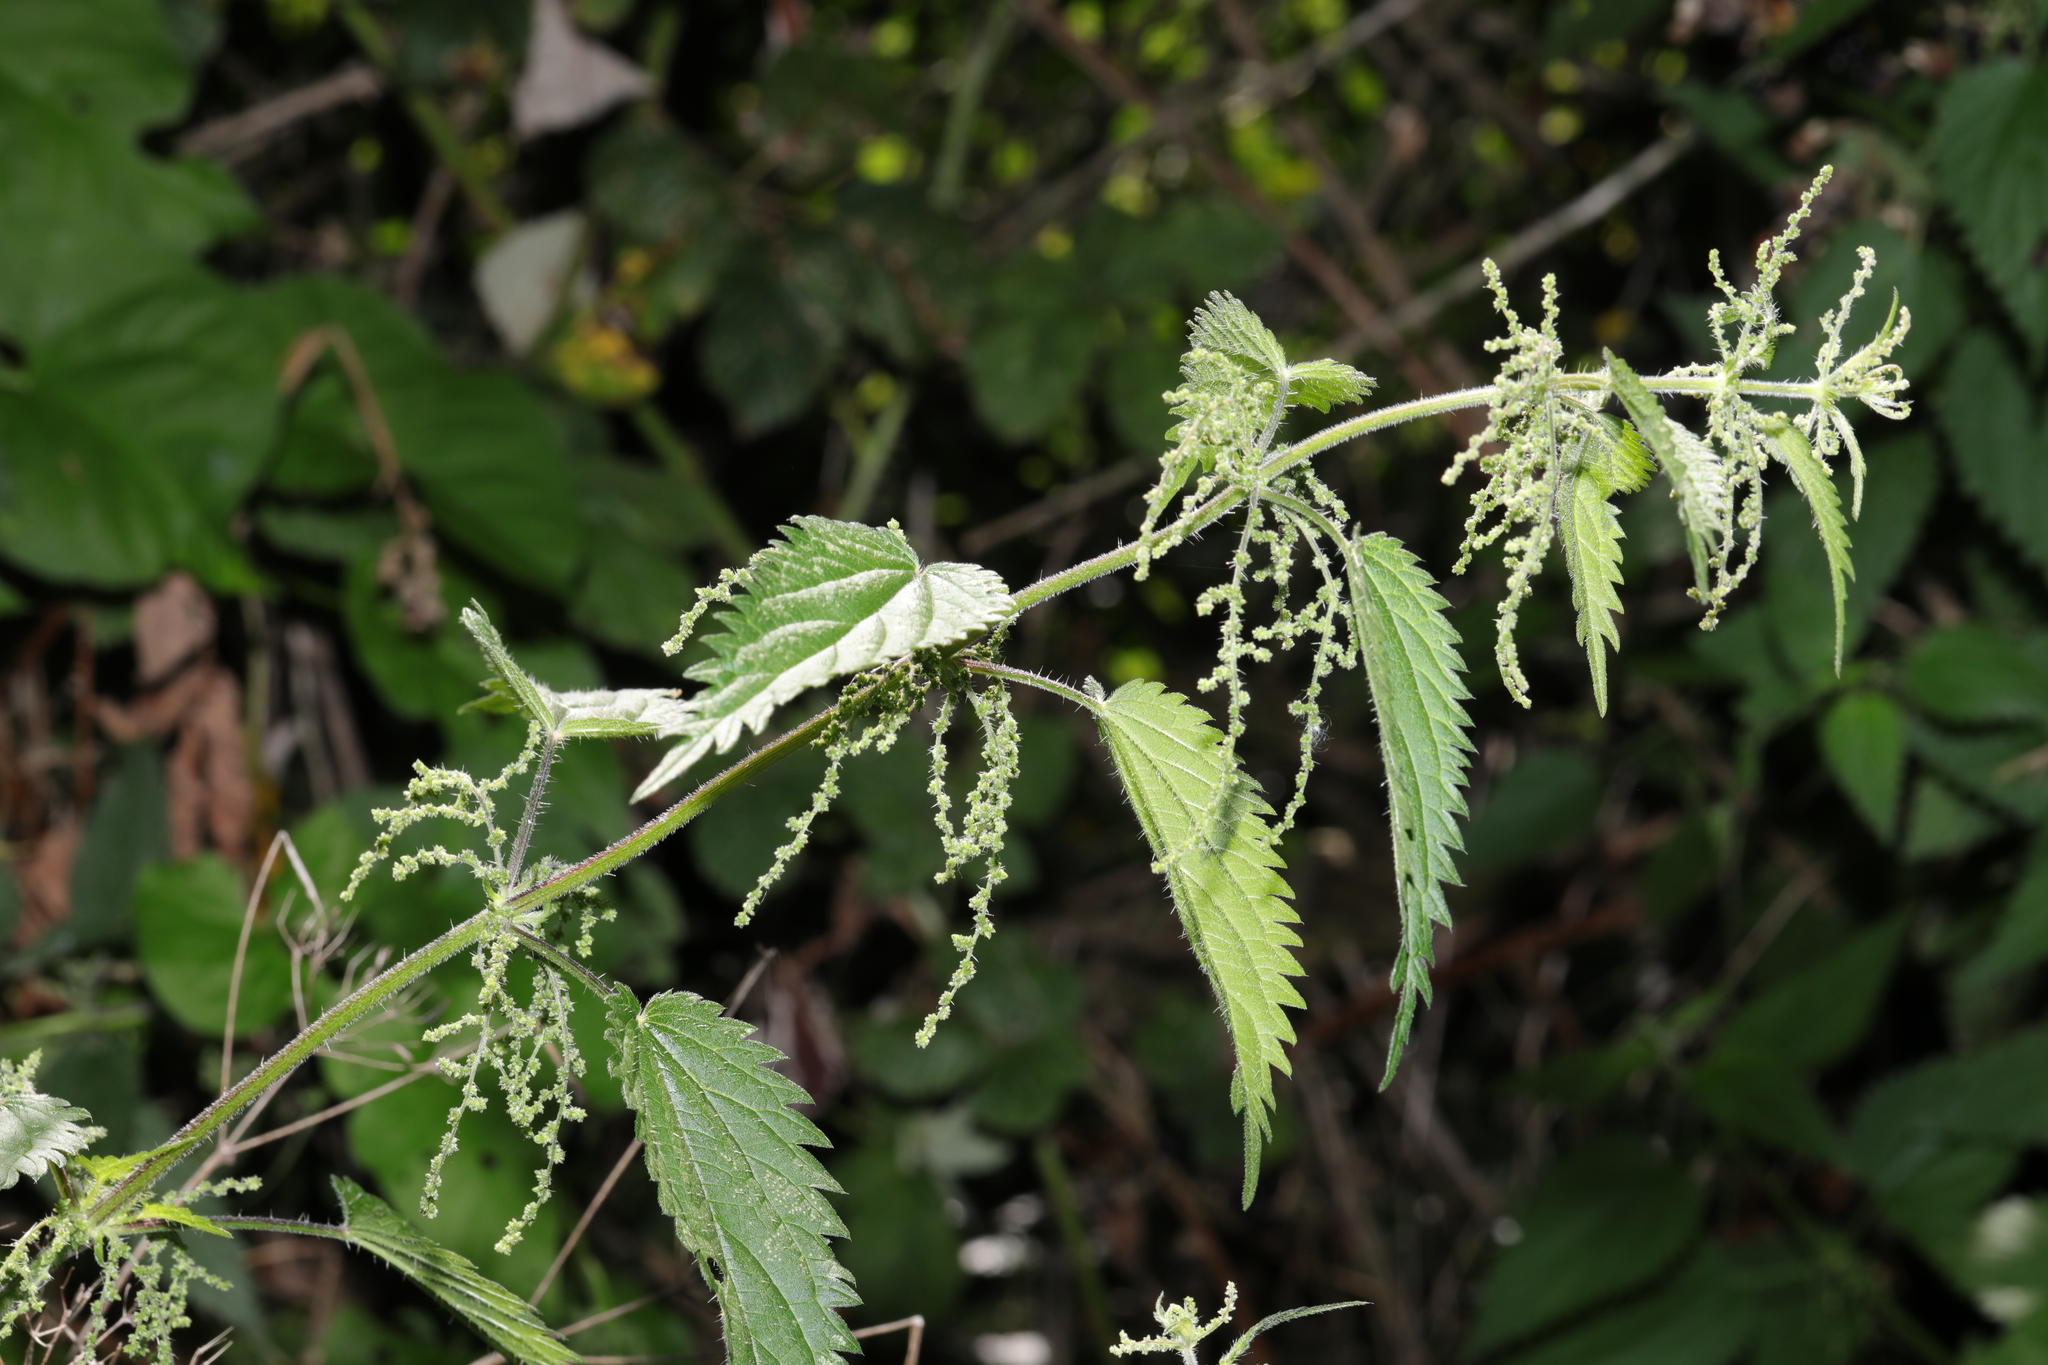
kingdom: Plantae
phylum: Tracheophyta
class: Magnoliopsida
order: Rosales
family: Urticaceae
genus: Urtica
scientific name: Urtica dioica
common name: Common nettle
